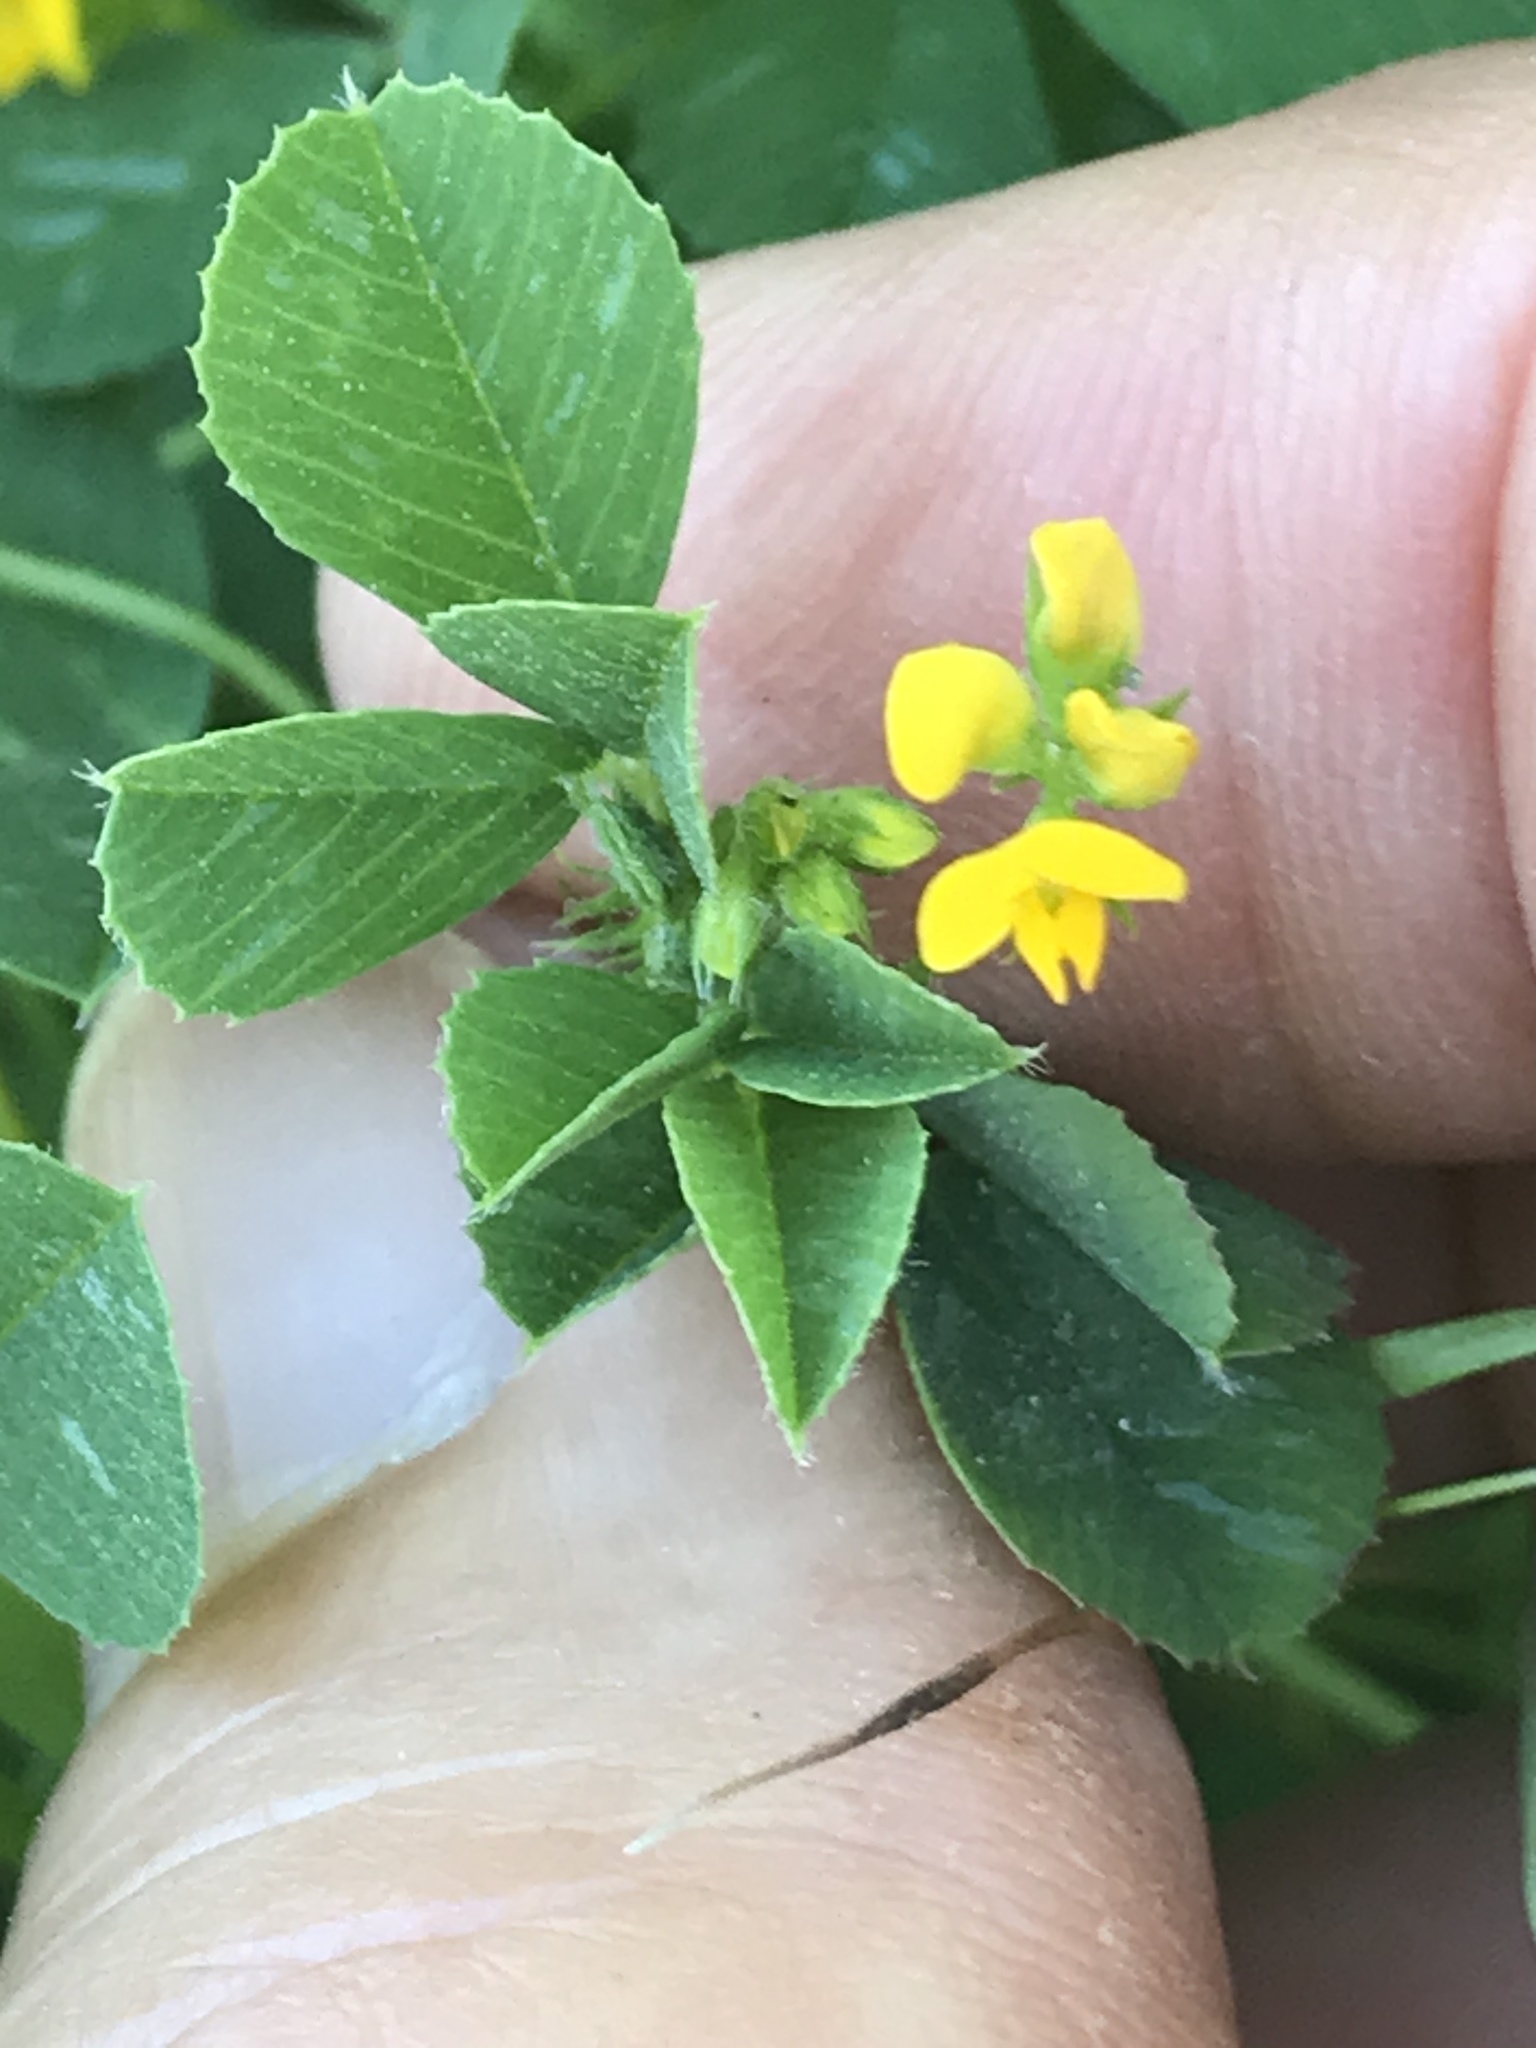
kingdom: Plantae
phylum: Tracheophyta
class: Magnoliopsida
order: Fabales
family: Fabaceae
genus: Medicago
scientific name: Medicago polymorpha
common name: Burclover
